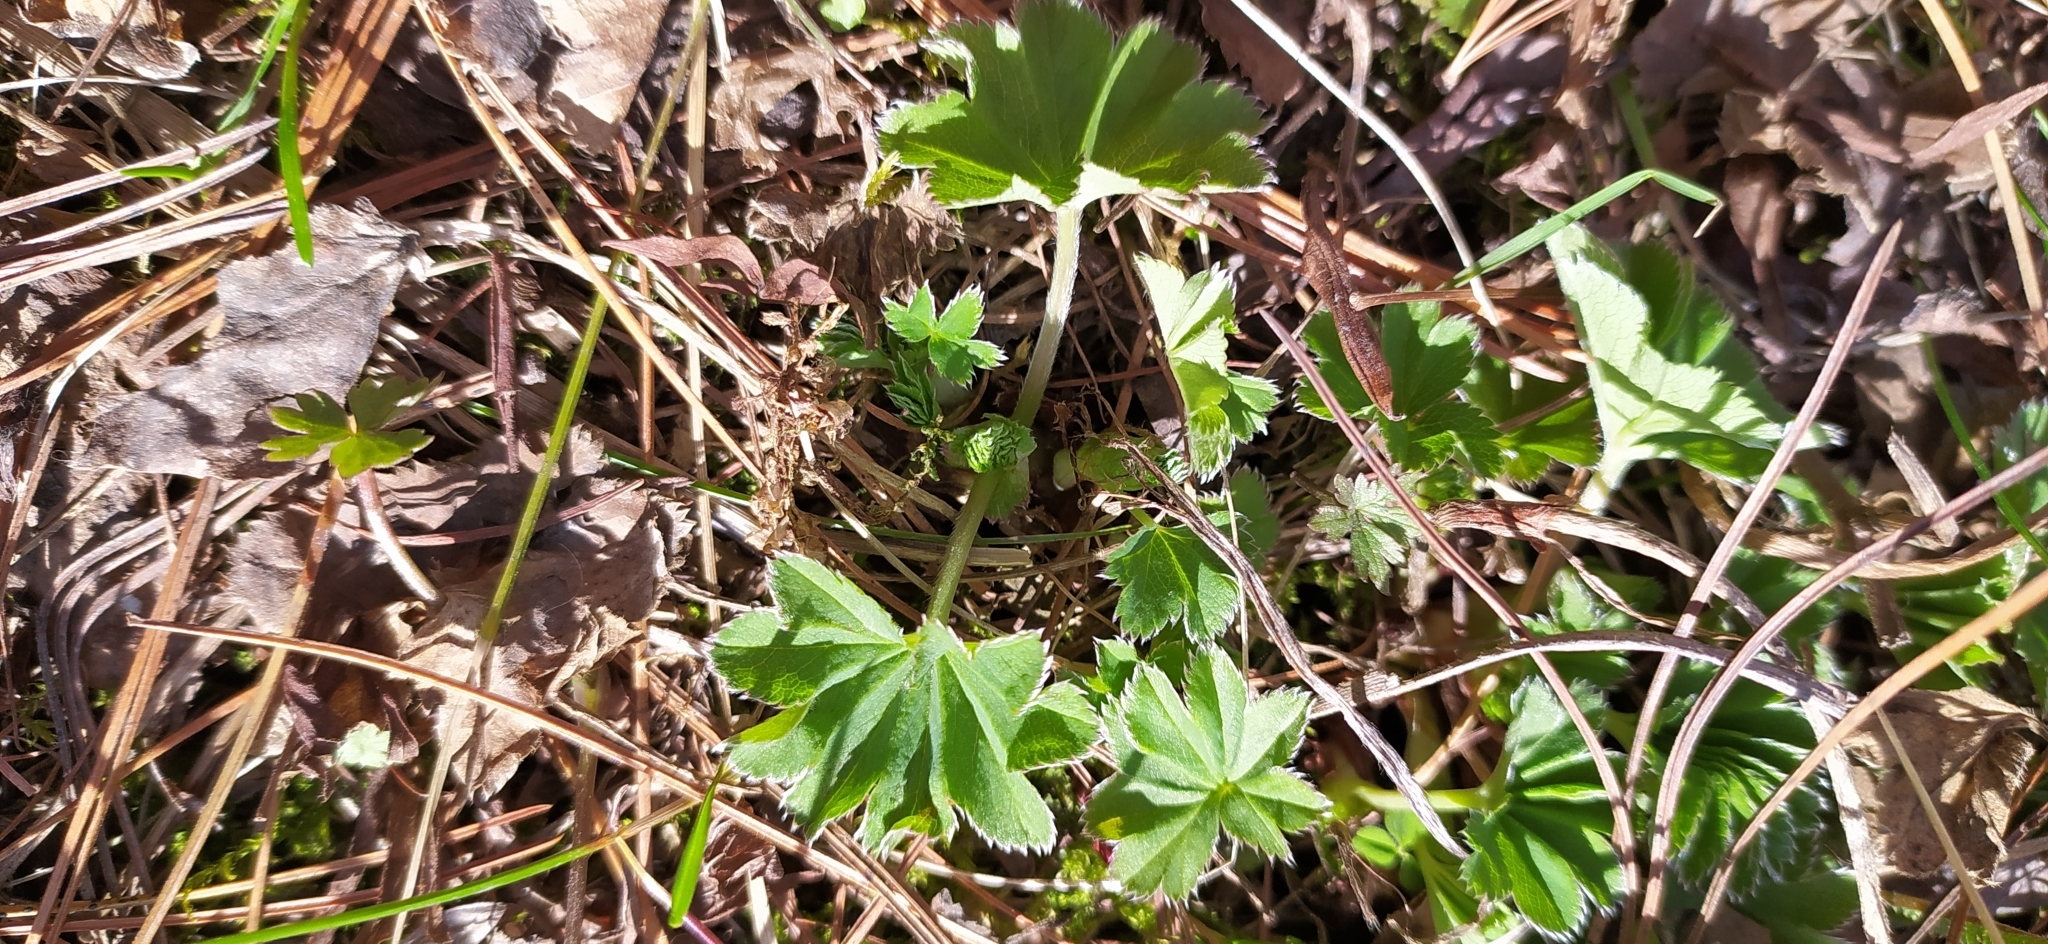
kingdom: Plantae
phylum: Tracheophyta
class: Magnoliopsida
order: Rosales
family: Rosaceae
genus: Alchemilla
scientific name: Alchemilla
